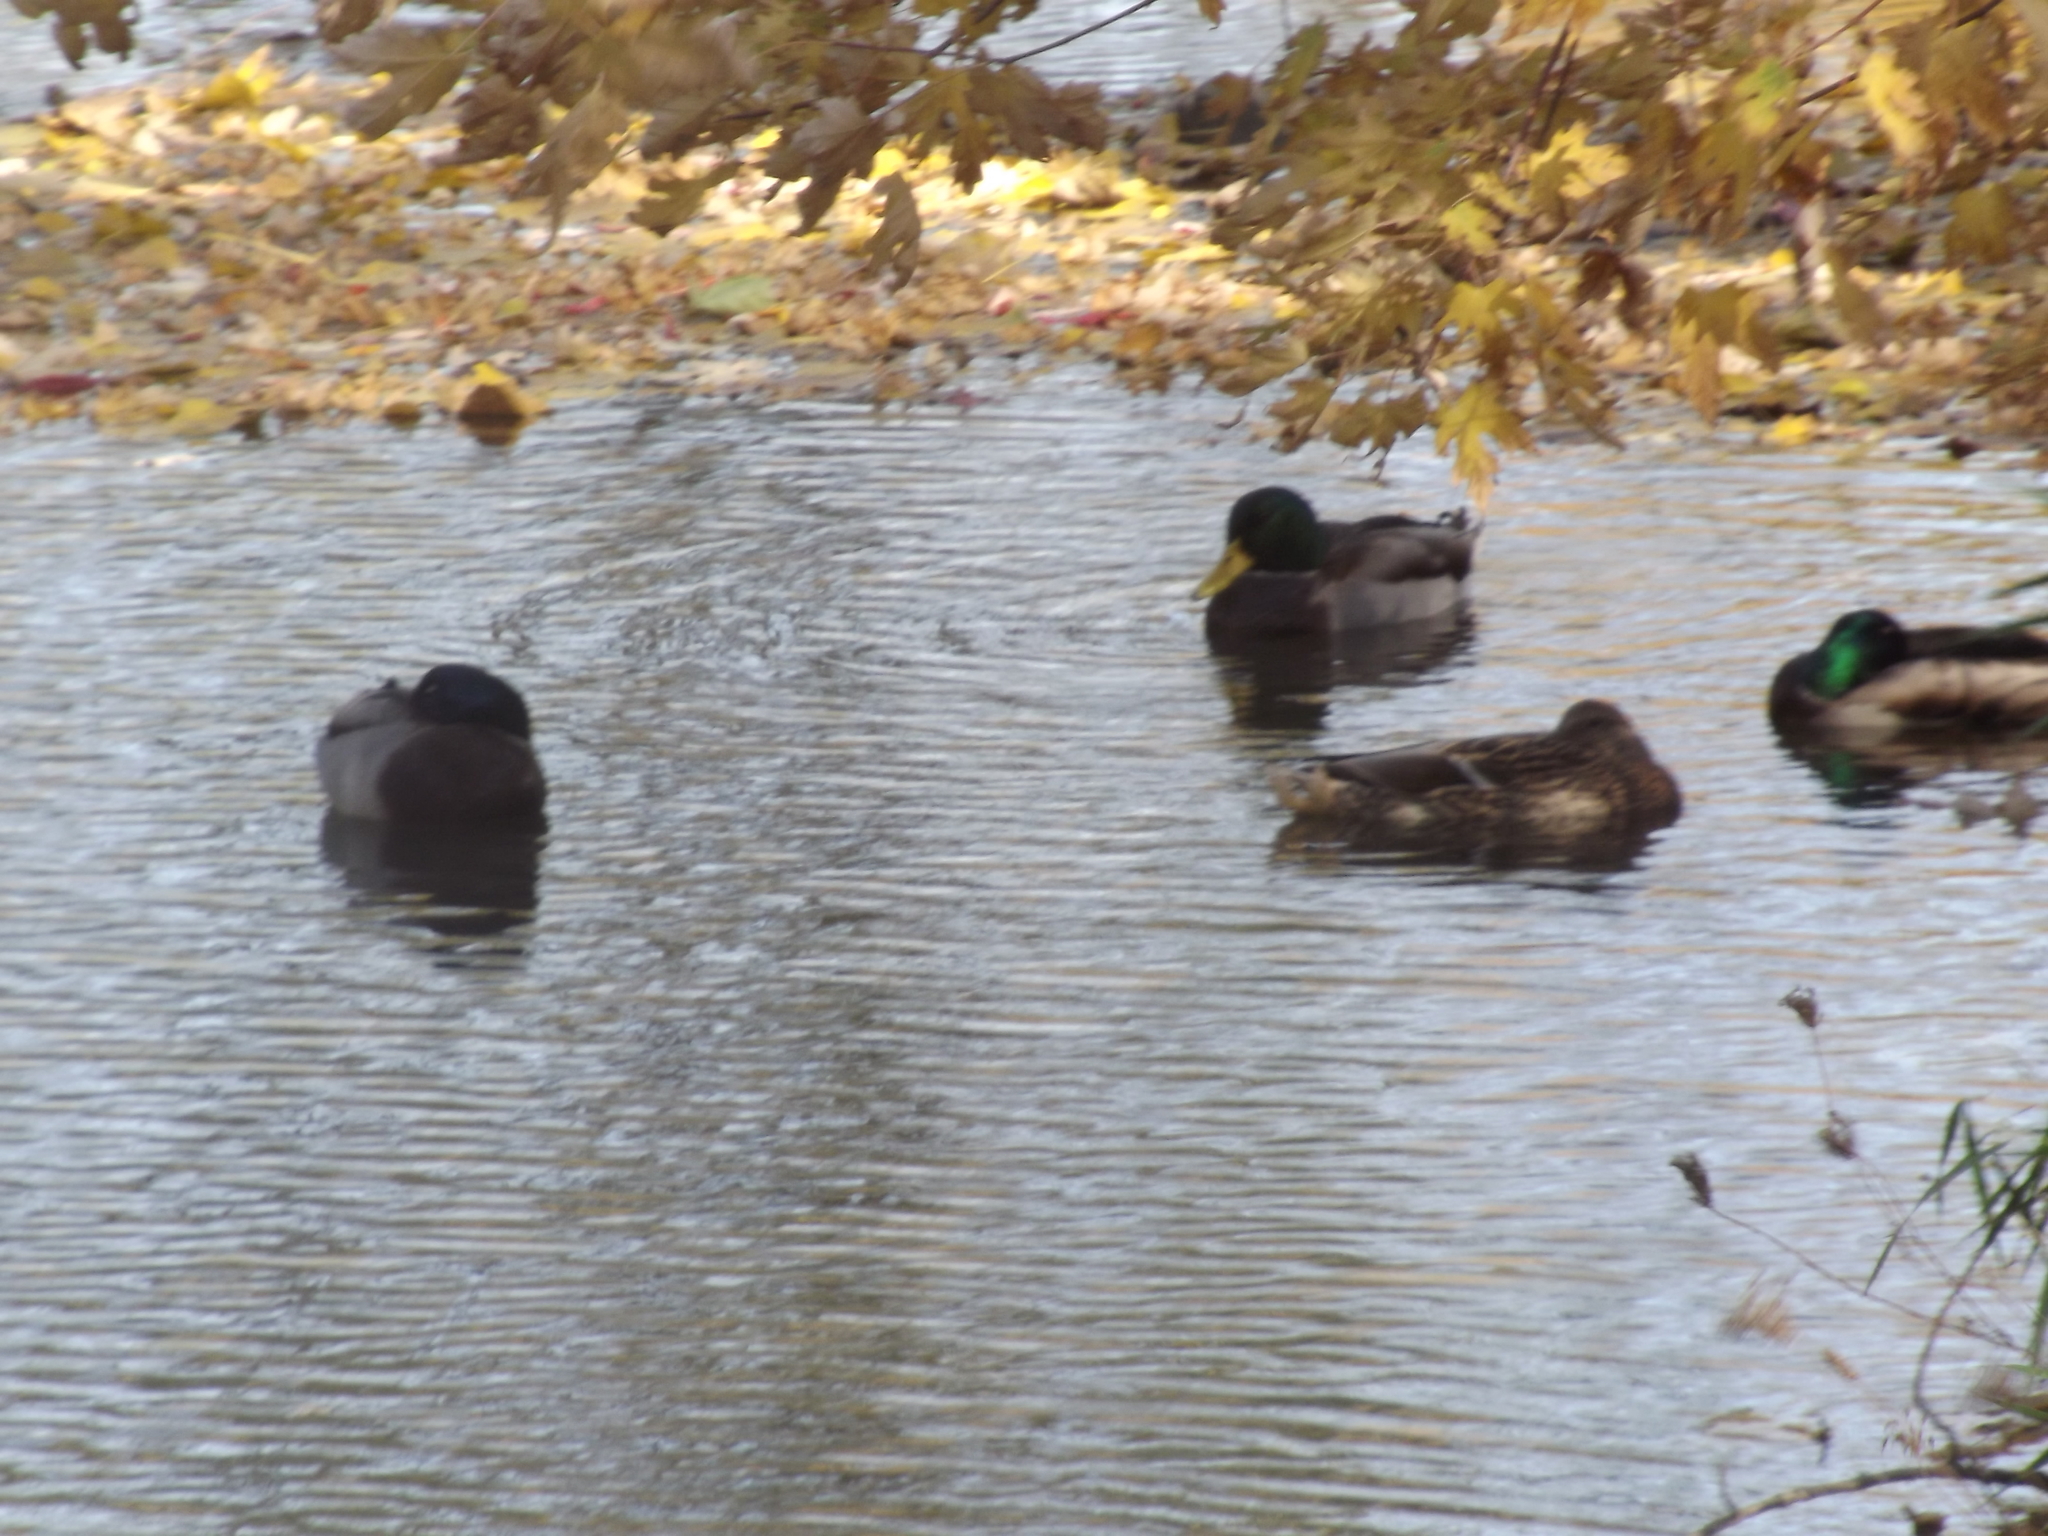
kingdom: Animalia
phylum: Chordata
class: Aves
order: Anseriformes
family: Anatidae
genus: Anas
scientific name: Anas platyrhynchos
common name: Mallard
